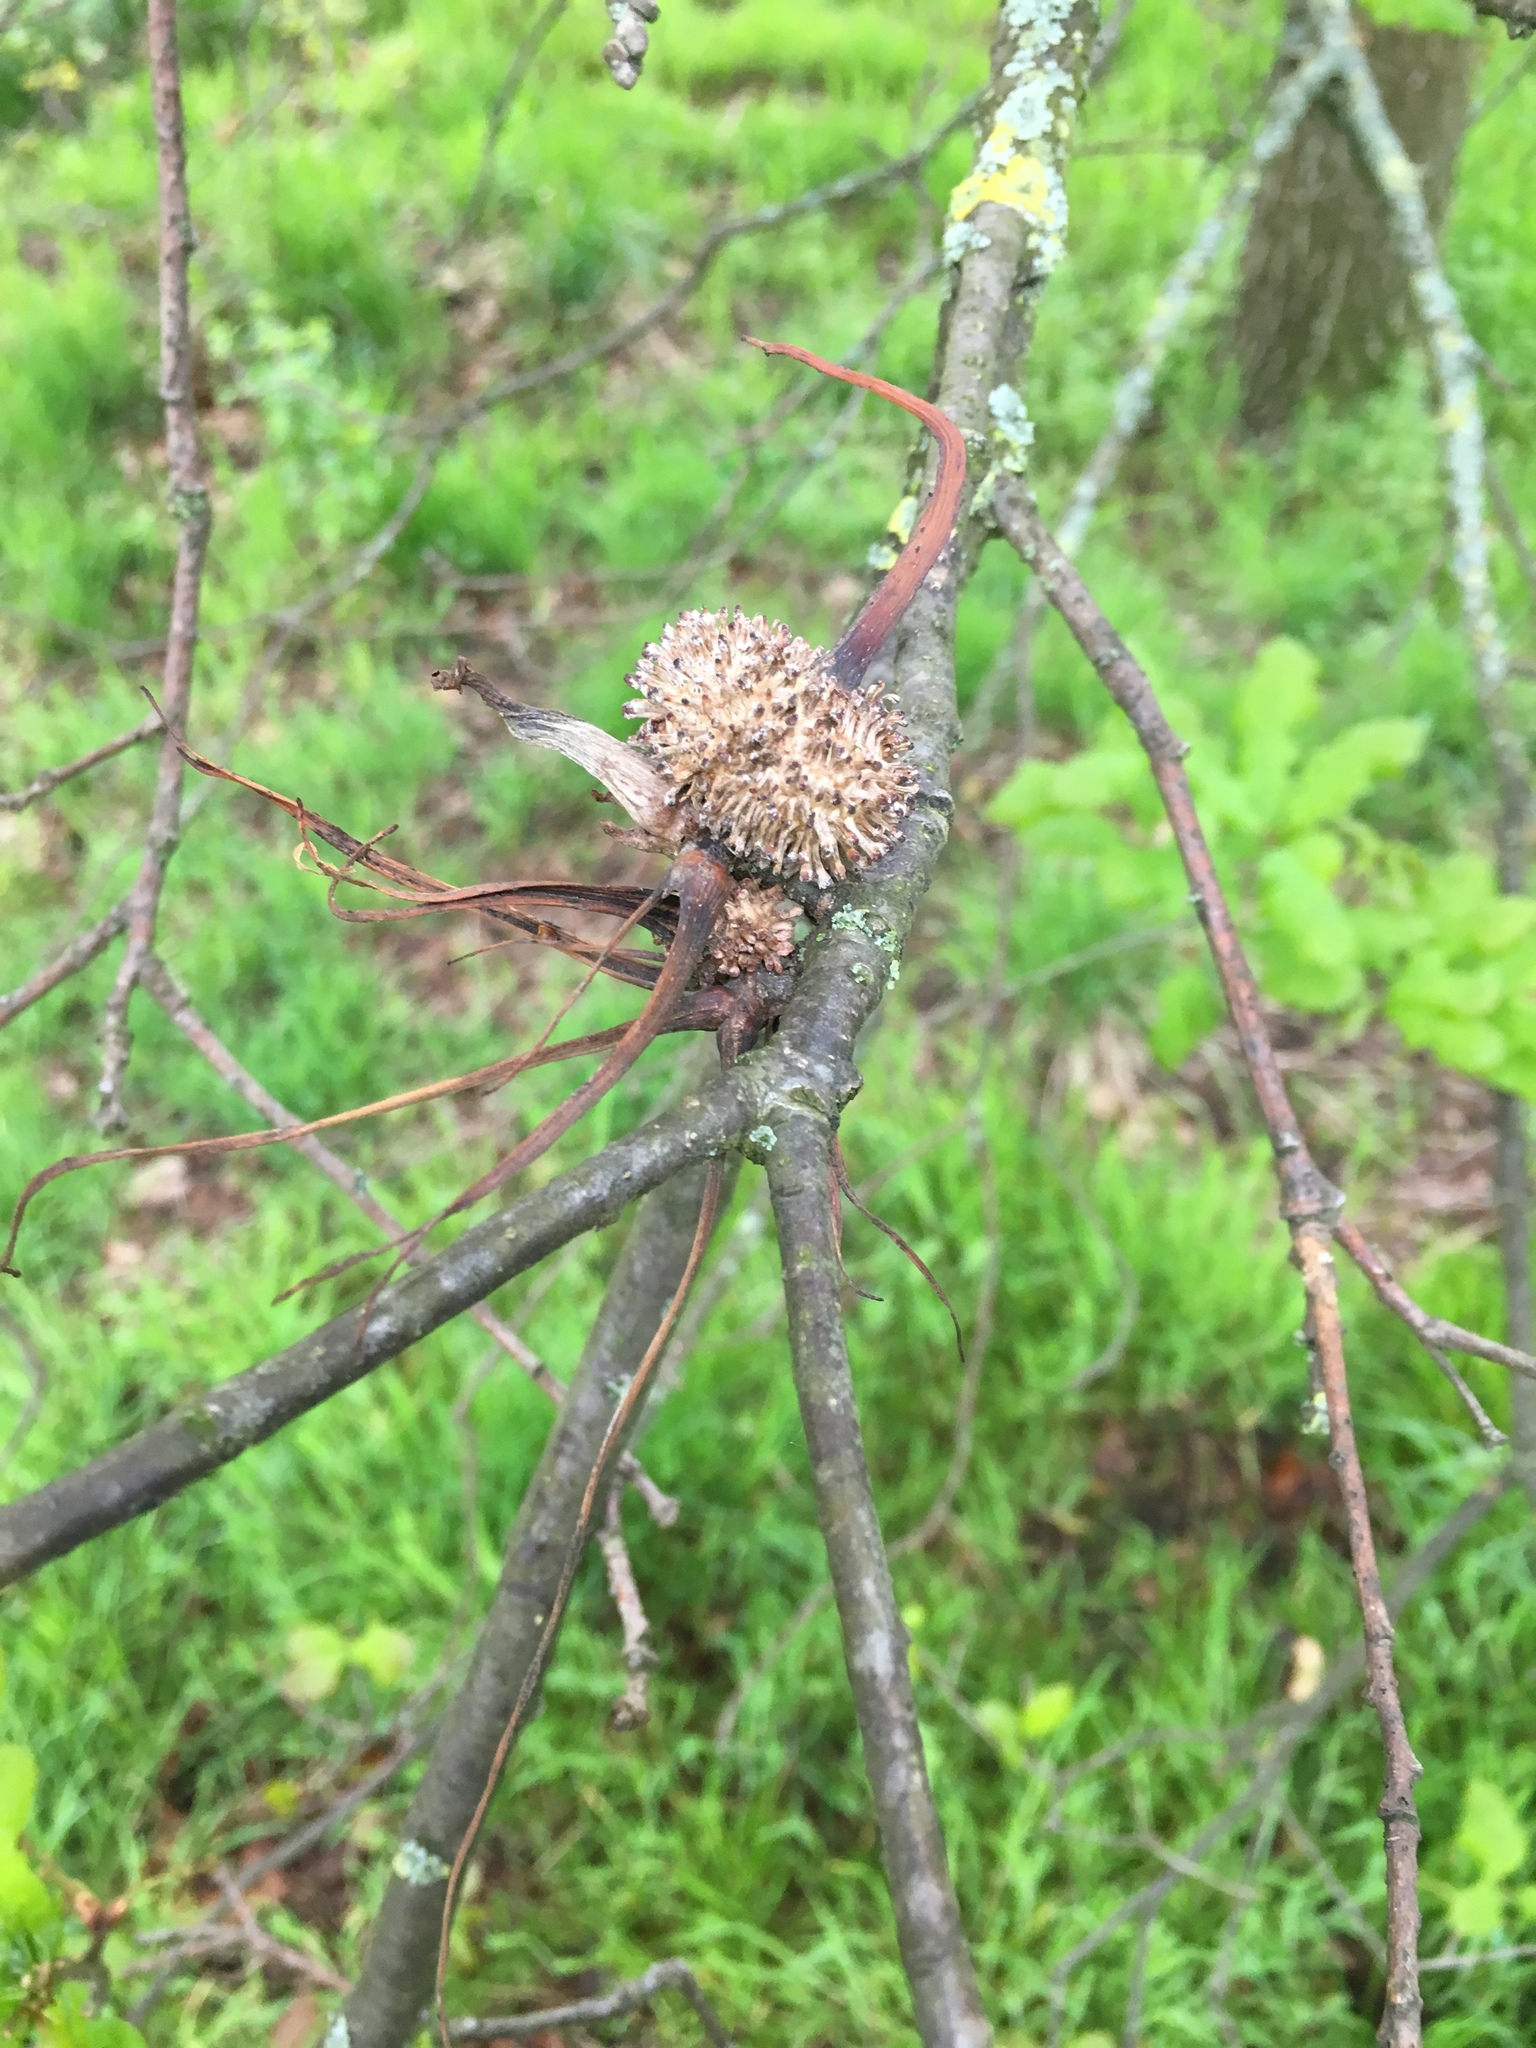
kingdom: Animalia
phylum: Arthropoda
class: Insecta
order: Hymenoptera
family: Cynipidae
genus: Andricus
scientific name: Andricus aries
